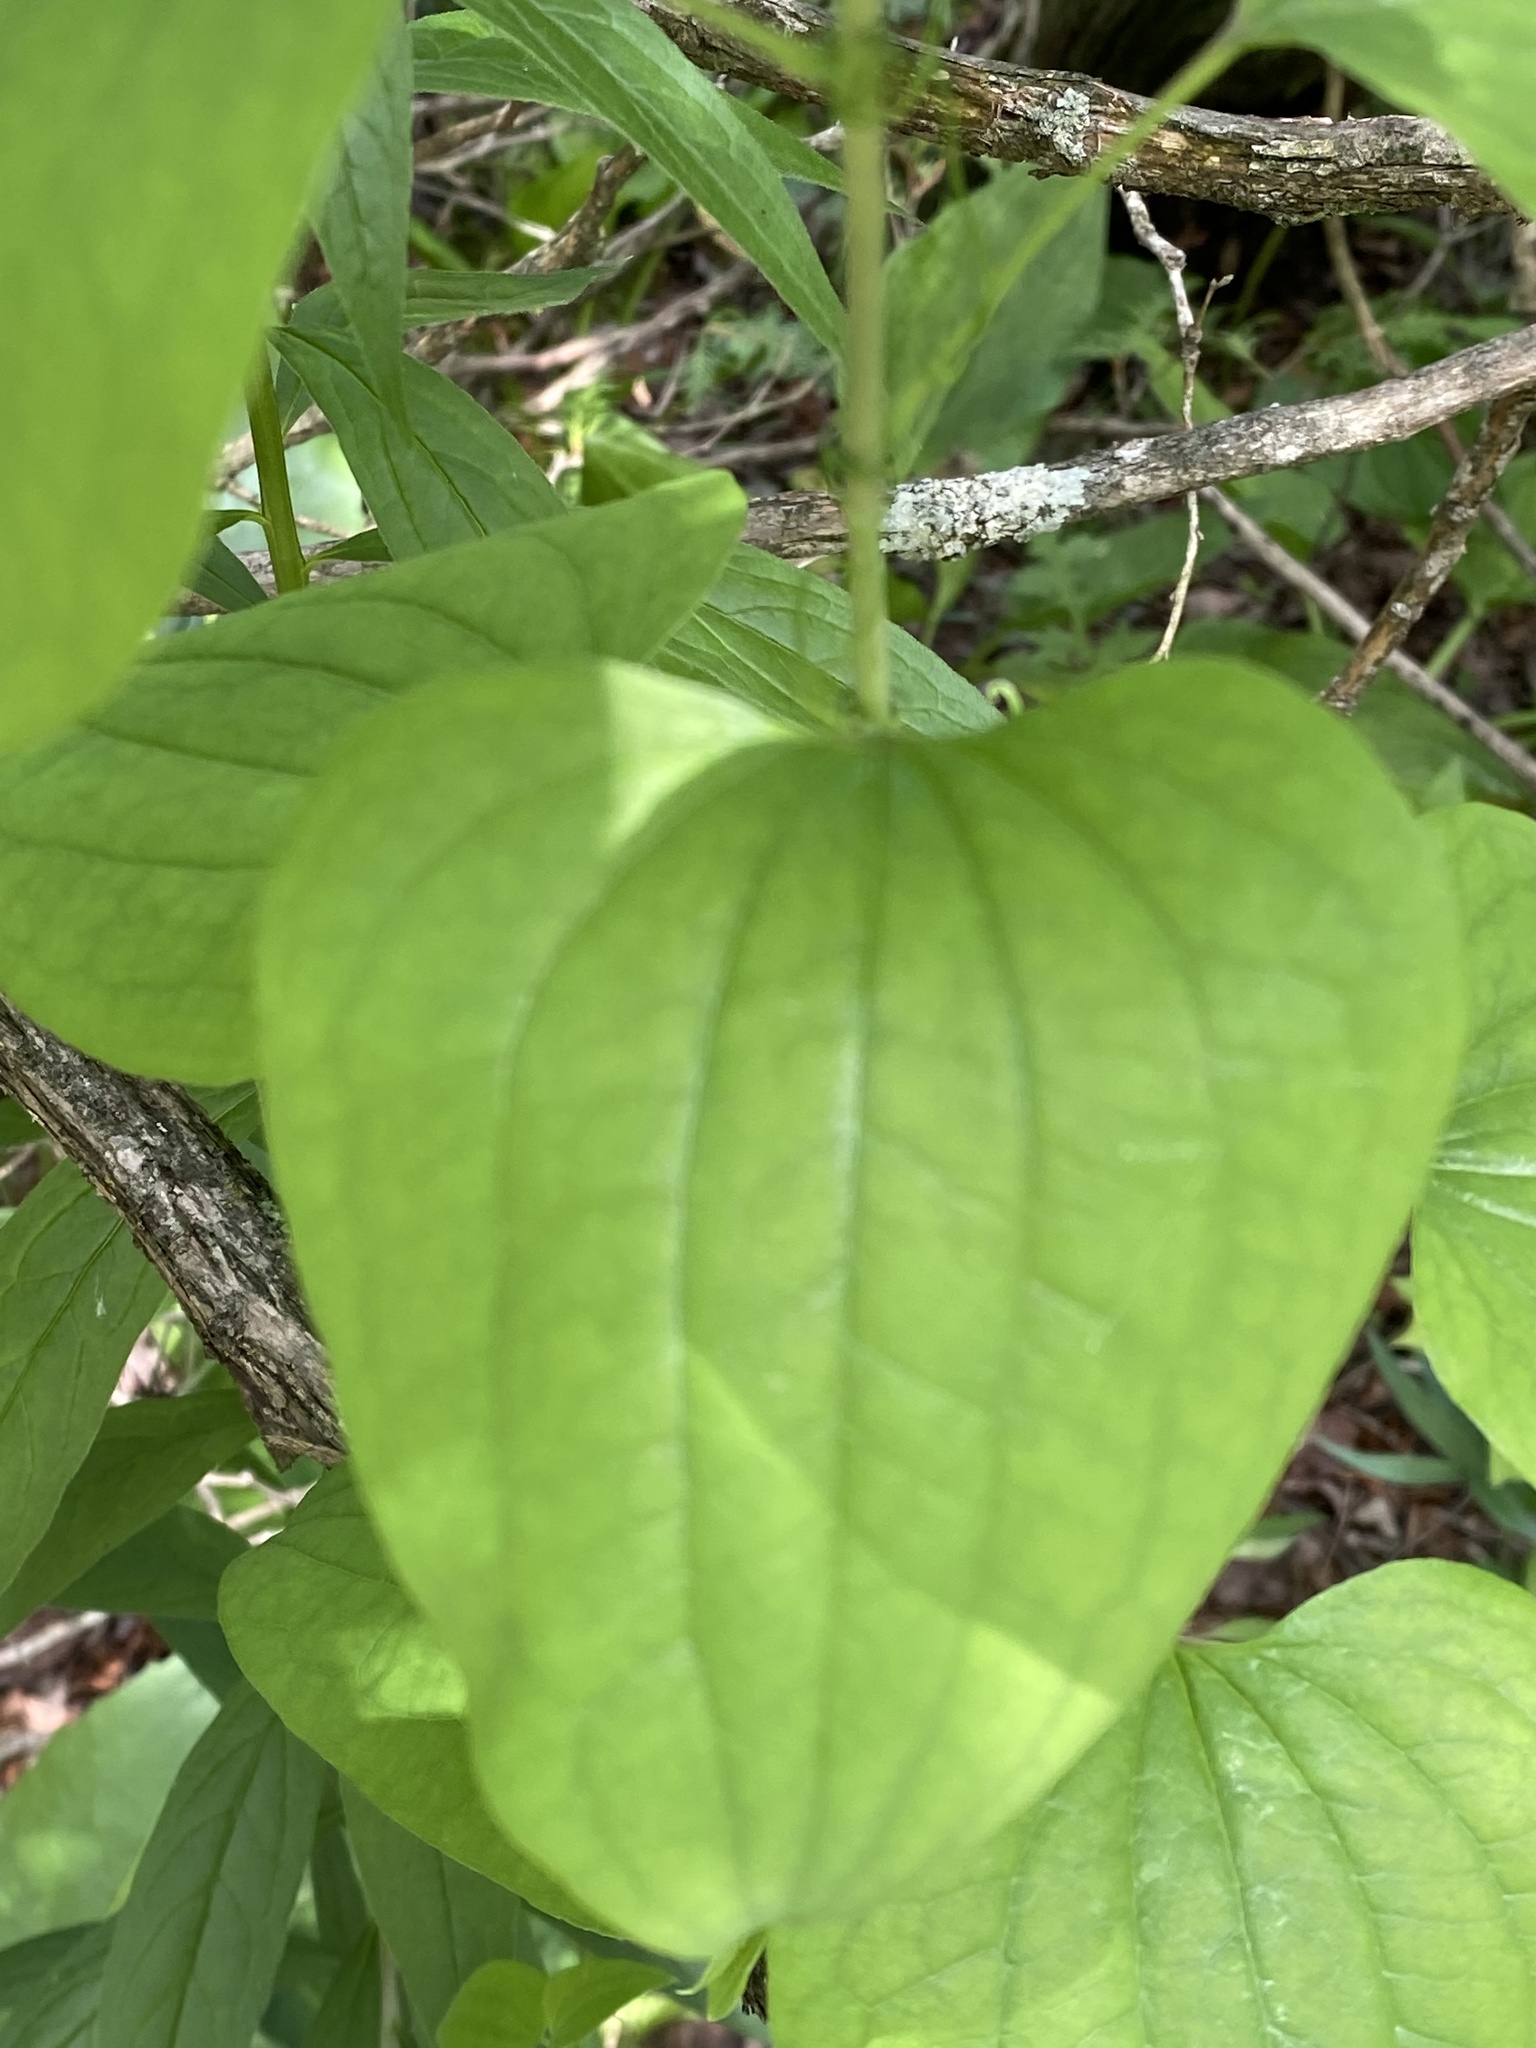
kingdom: Plantae
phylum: Tracheophyta
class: Liliopsida
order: Liliales
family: Smilacaceae
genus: Smilax
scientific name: Smilax herbacea
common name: Jacob's-ladder
